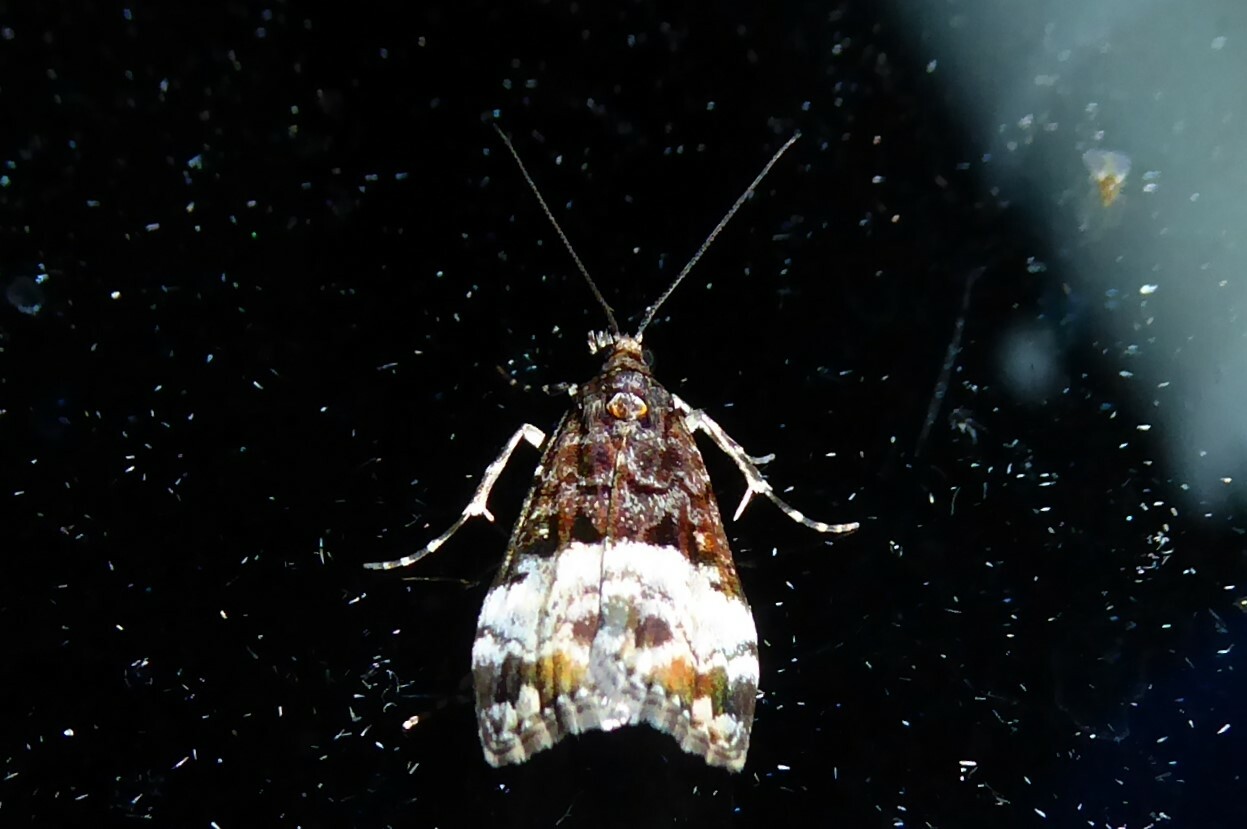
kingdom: Animalia
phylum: Arthropoda
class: Insecta
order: Lepidoptera
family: Crambidae
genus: Scoparia
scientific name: Scoparia minusculalis
